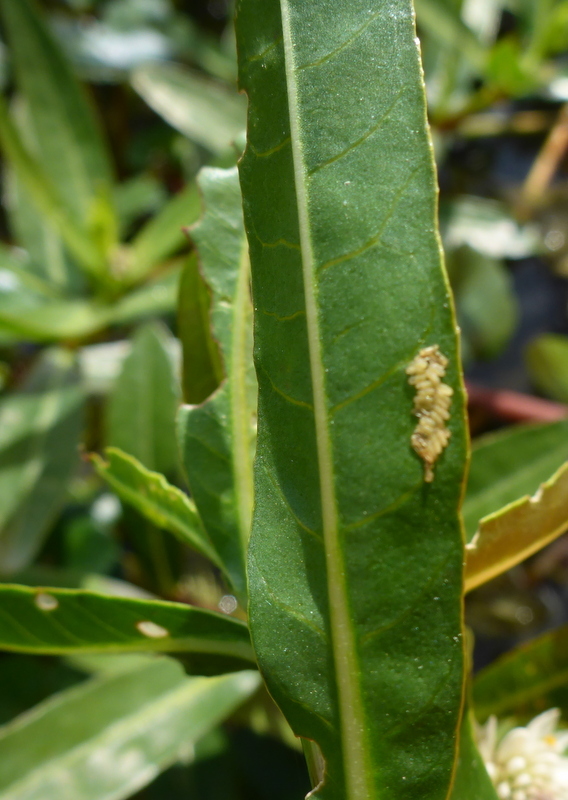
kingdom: Animalia
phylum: Arthropoda
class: Insecta
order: Coleoptera
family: Chrysomelidae
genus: Agasicles
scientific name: Agasicles hygrophila
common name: Alligatorweed flea beetle
